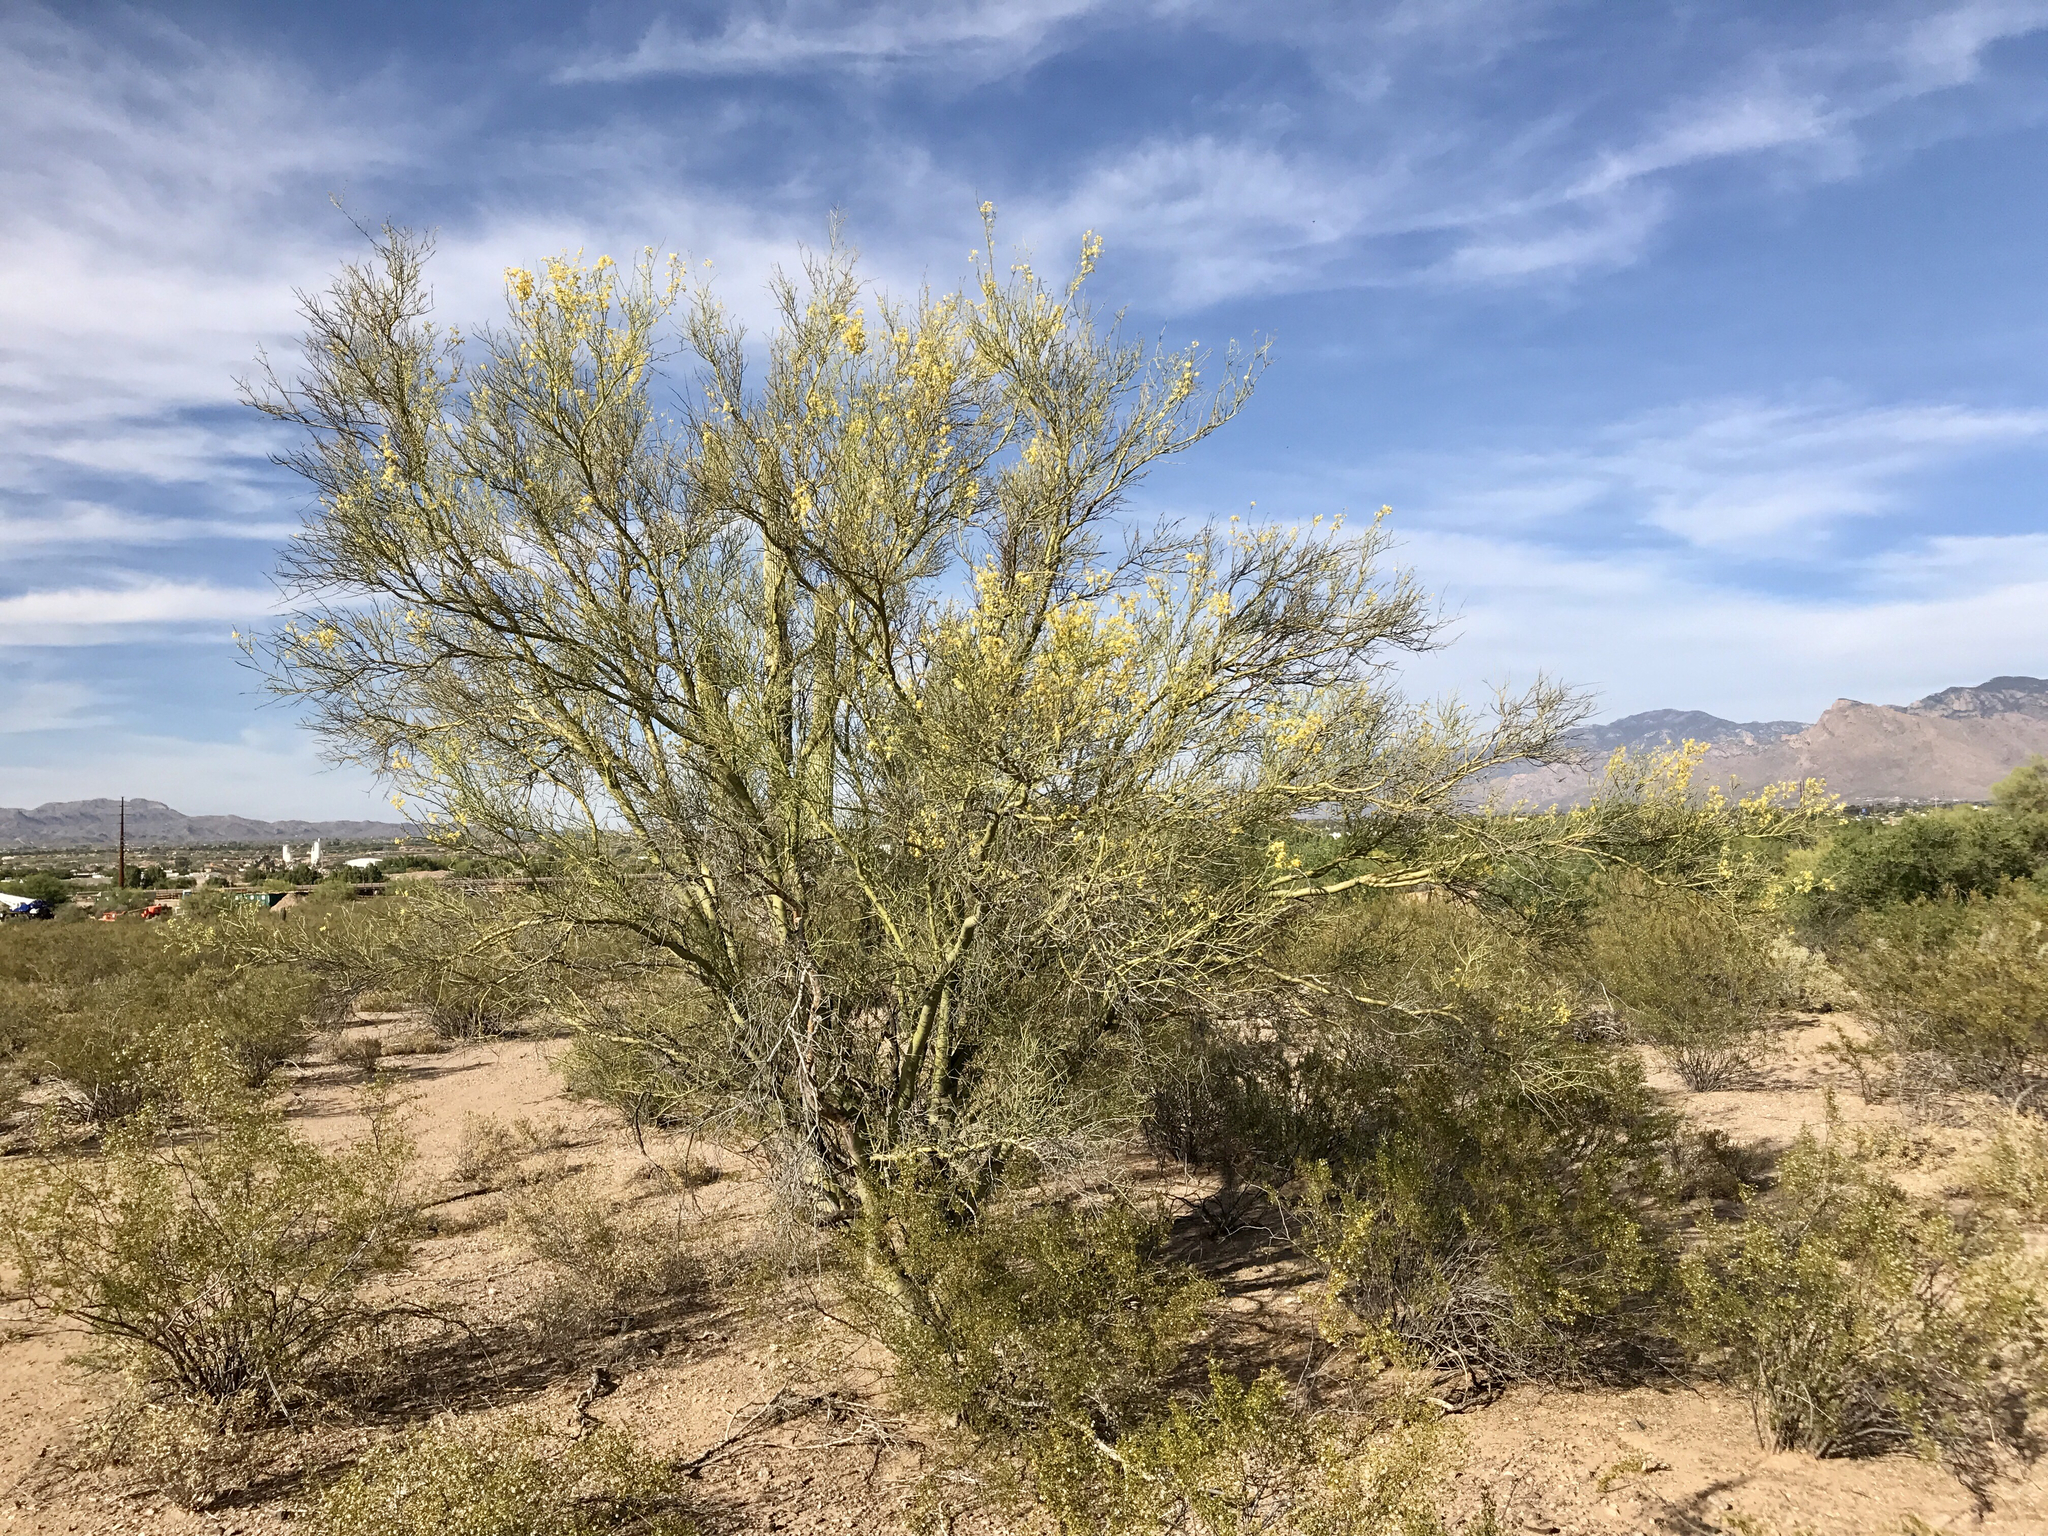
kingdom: Plantae
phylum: Tracheophyta
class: Magnoliopsida
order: Fabales
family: Fabaceae
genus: Parkinsonia
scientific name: Parkinsonia microphylla
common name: Yellow paloverde
